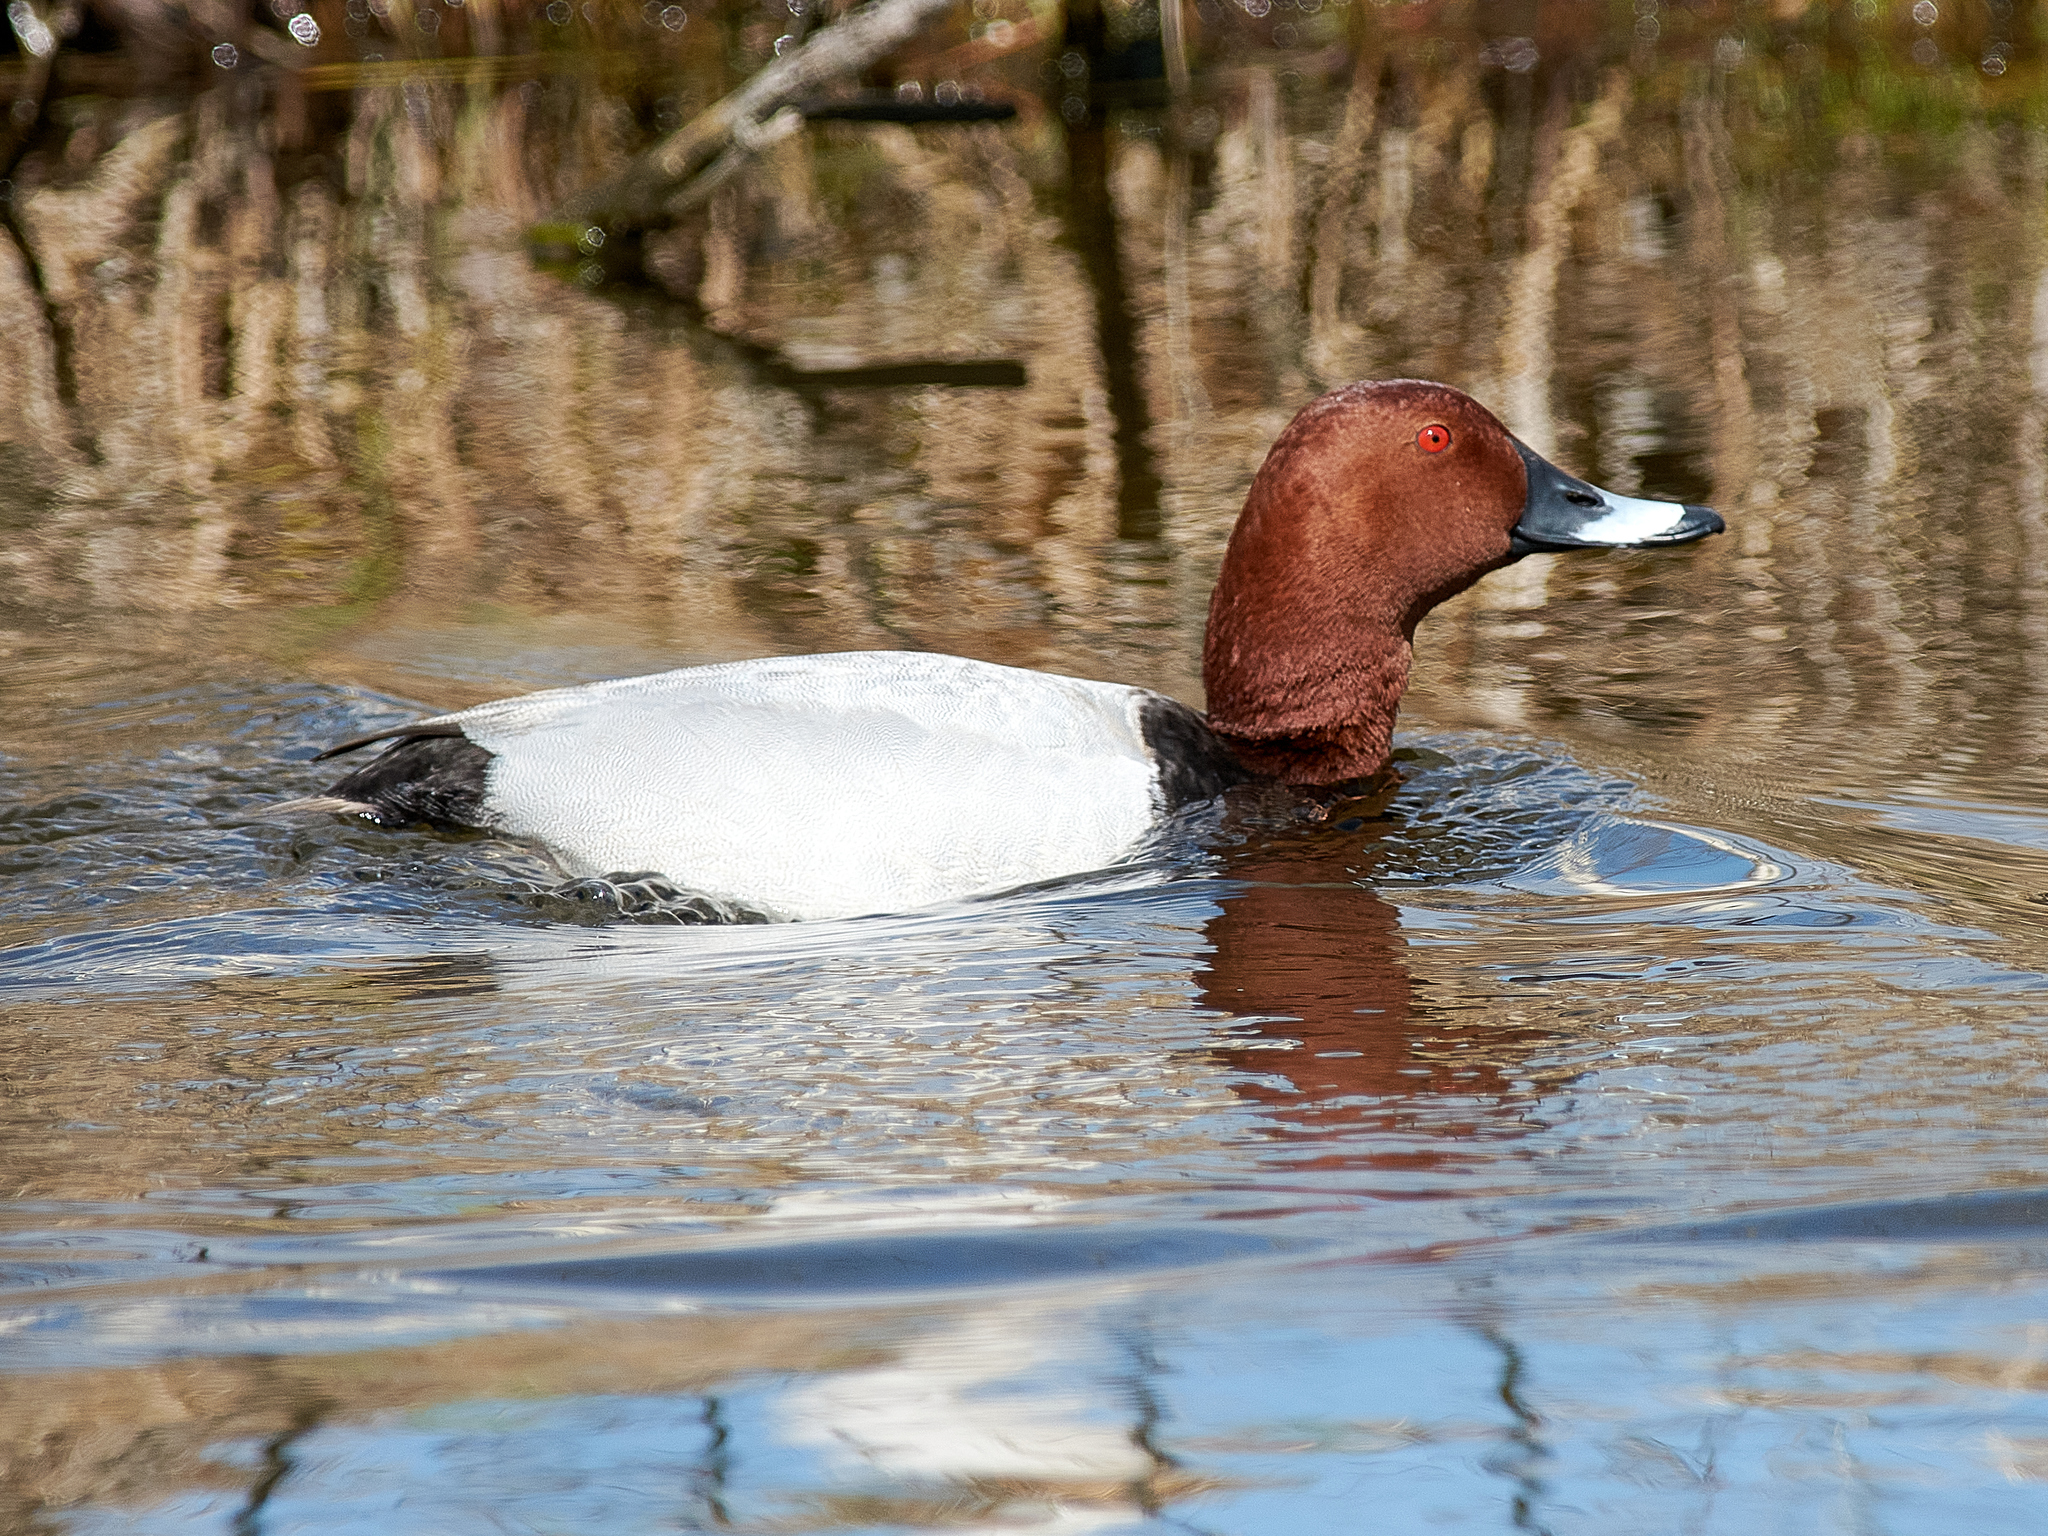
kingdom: Animalia
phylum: Chordata
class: Aves
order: Anseriformes
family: Anatidae
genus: Aythya
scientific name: Aythya ferina
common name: Common pochard
